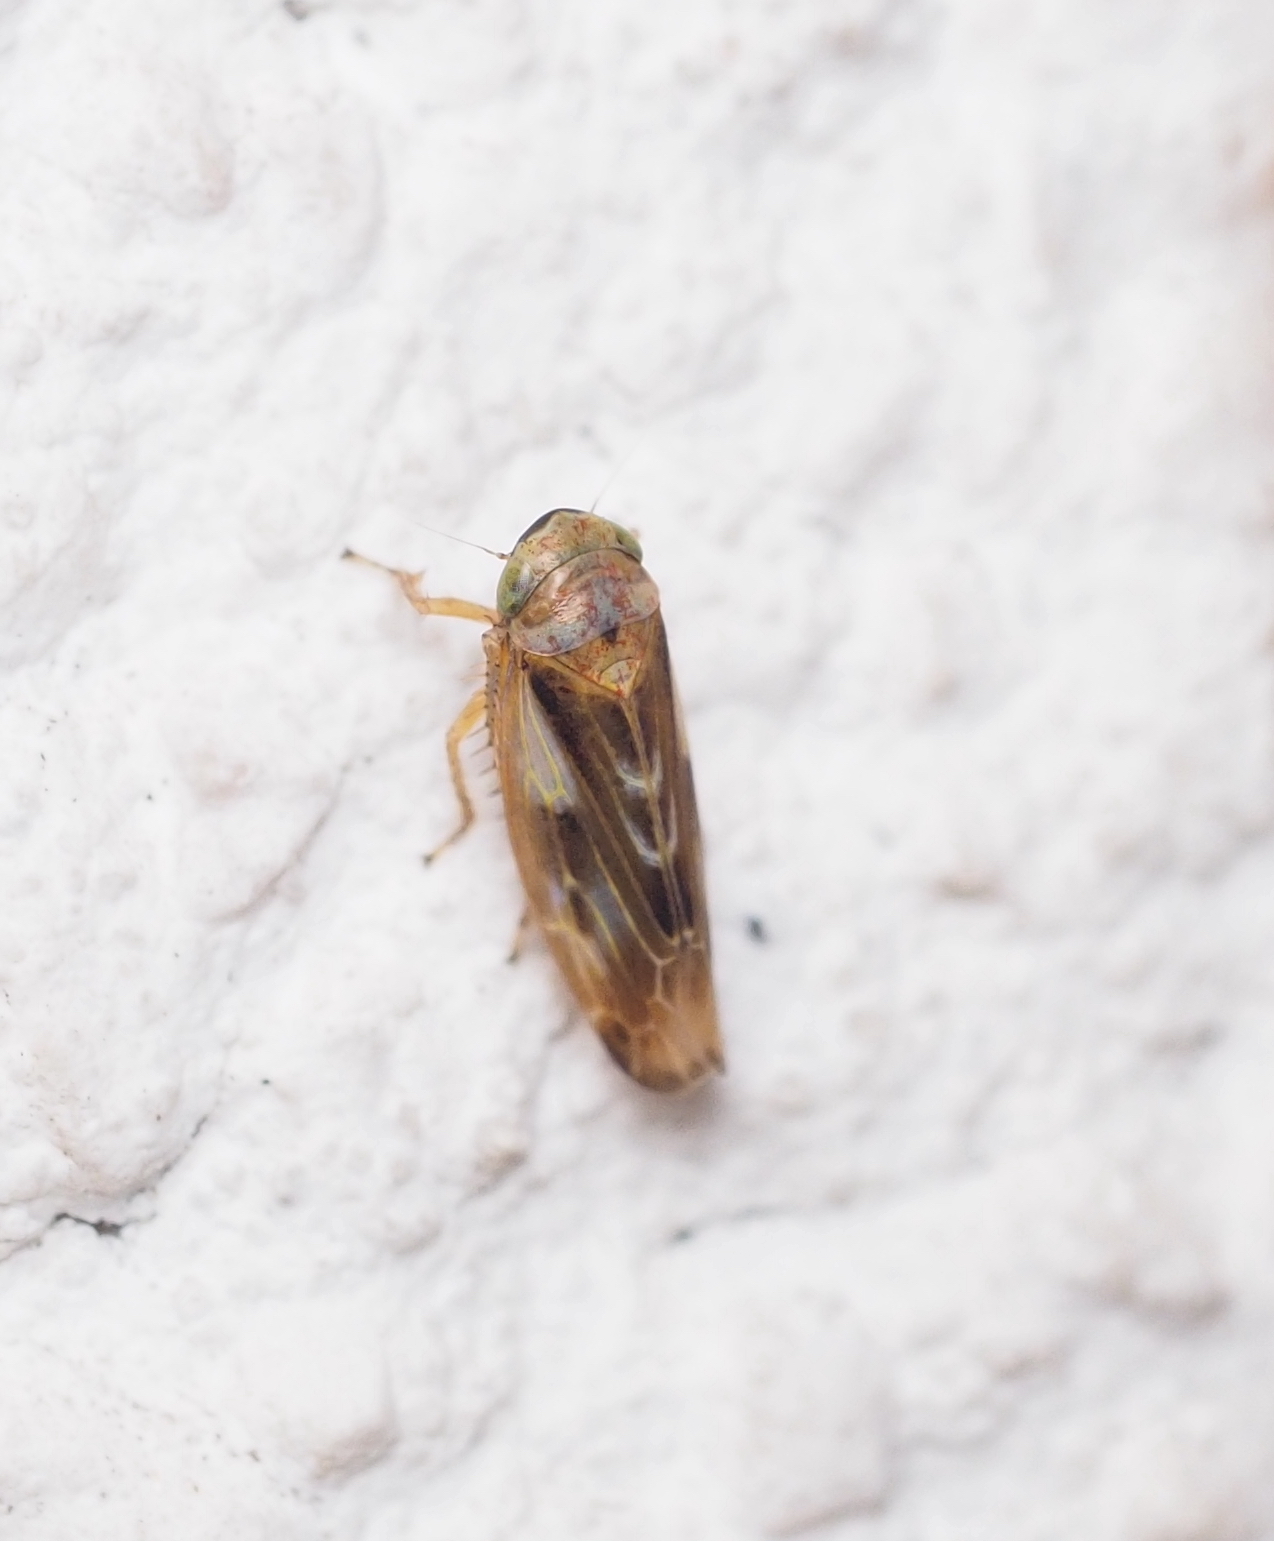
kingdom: Animalia
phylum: Arthropoda
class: Insecta
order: Hemiptera
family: Cicadellidae
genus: Pithyotettix
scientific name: Pithyotettix abietinus
